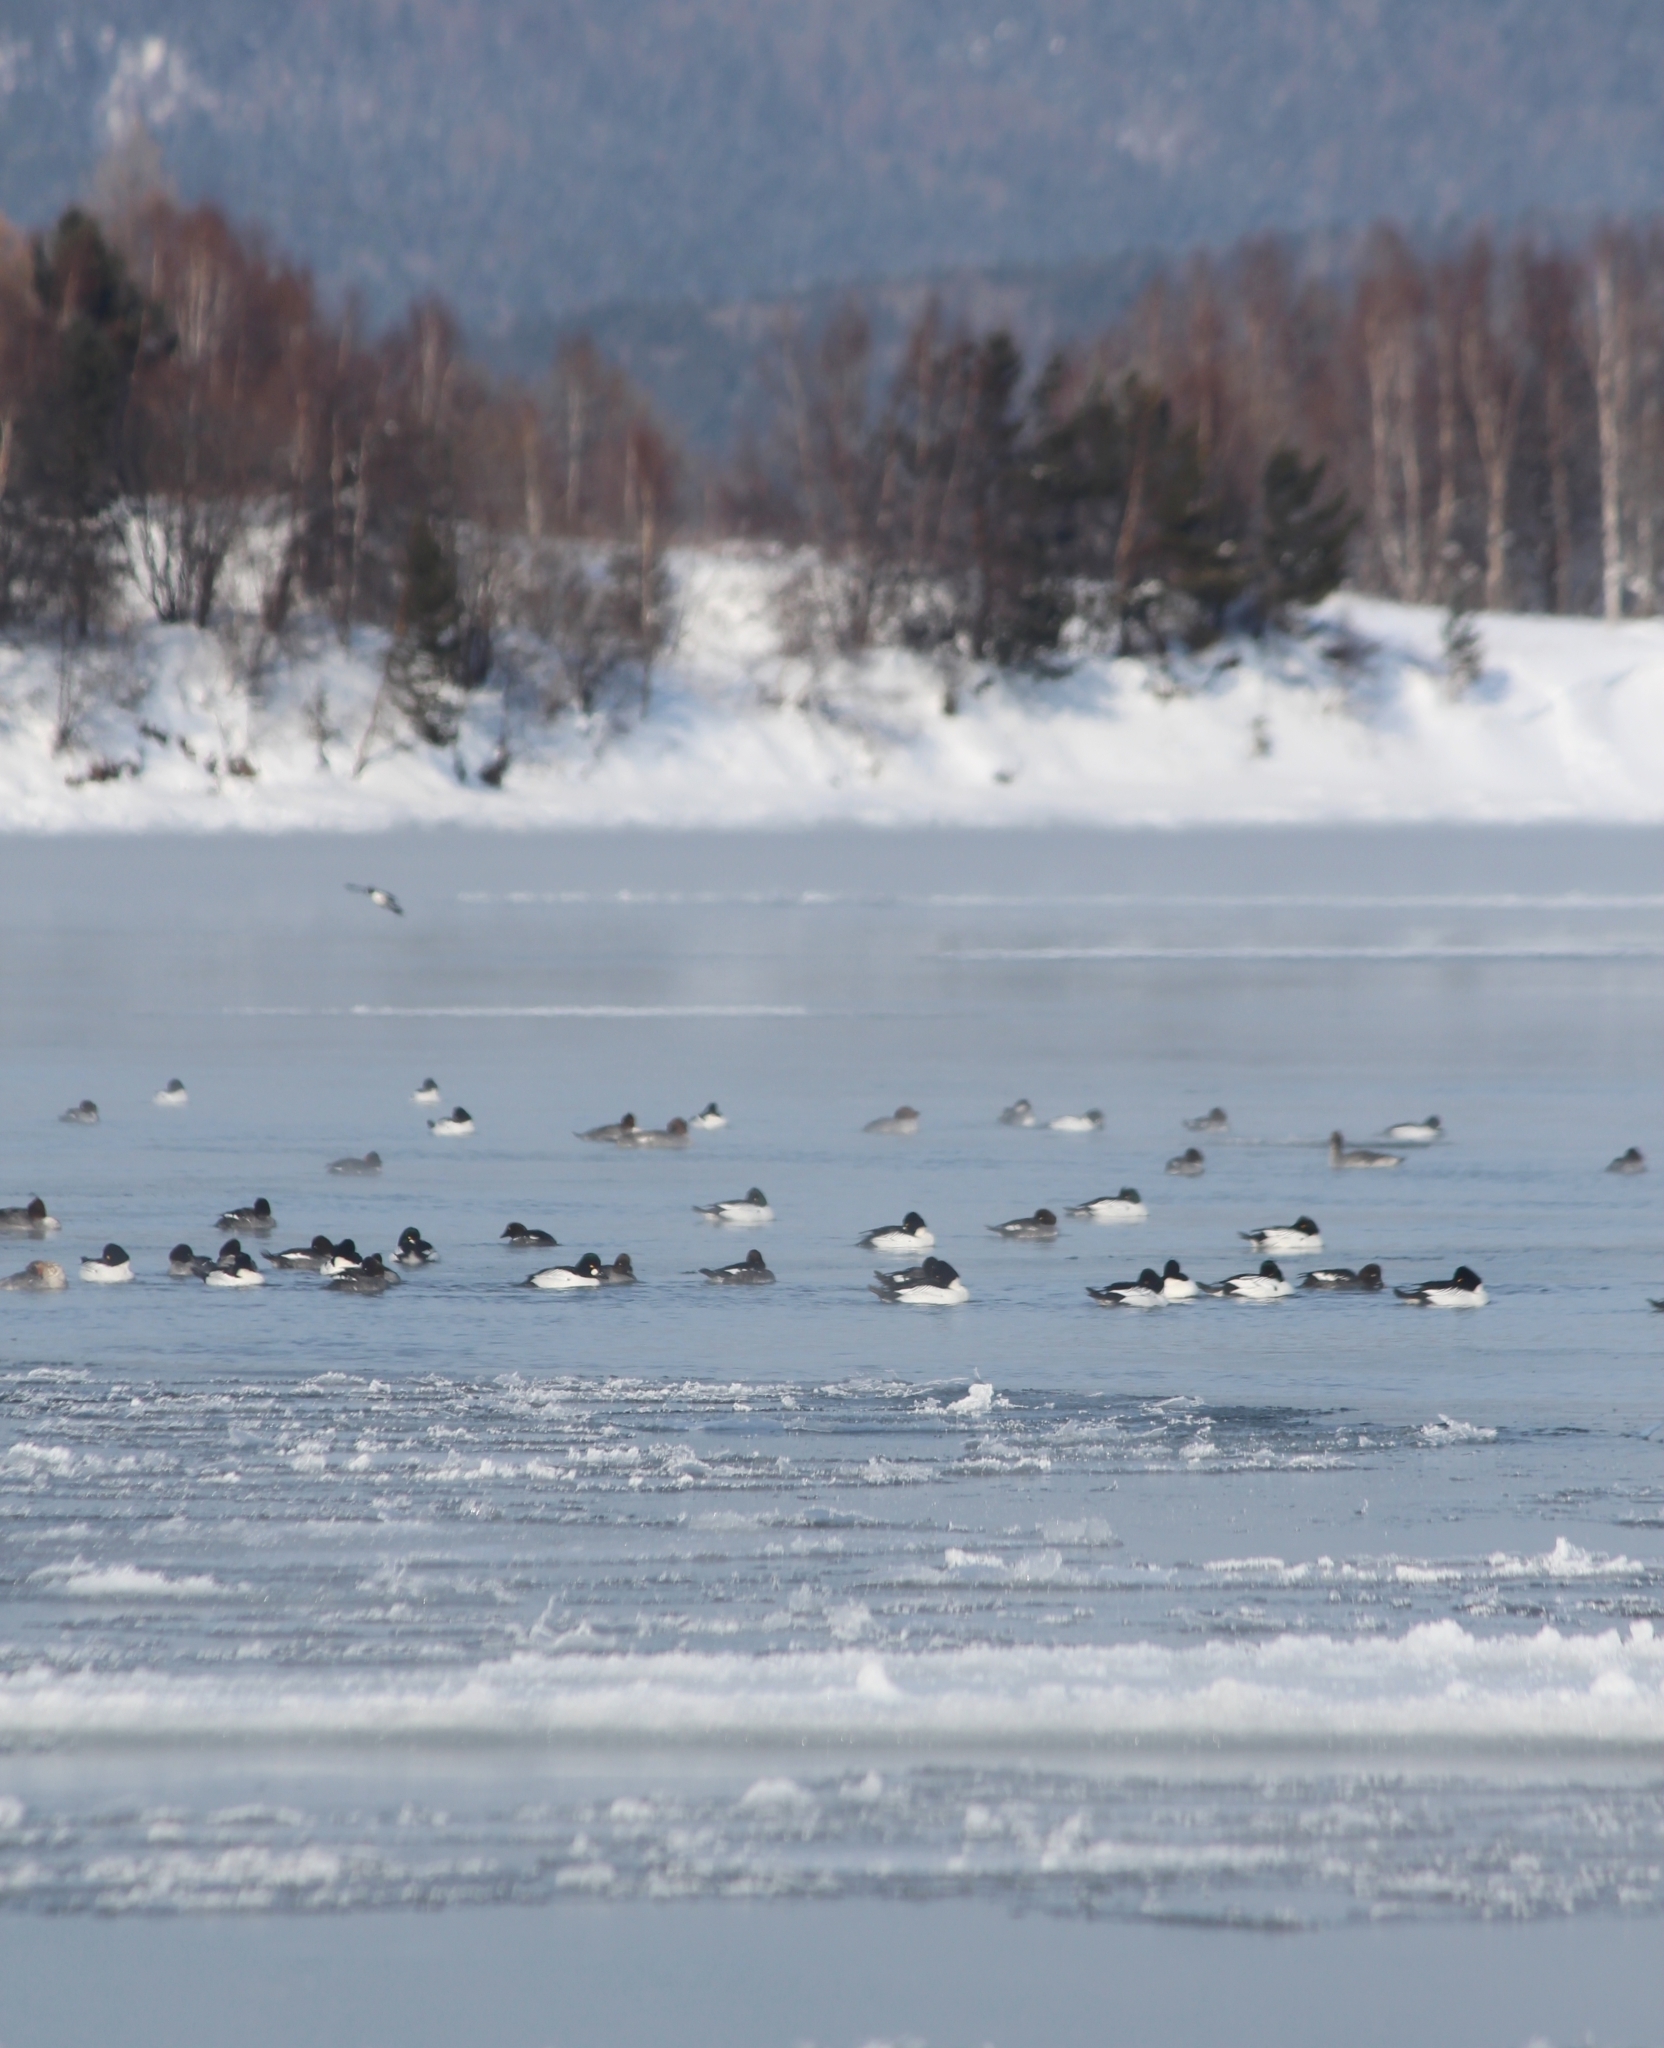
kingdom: Animalia
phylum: Chordata
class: Aves
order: Anseriformes
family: Anatidae
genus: Bucephala
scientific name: Bucephala clangula
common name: Common goldeneye
